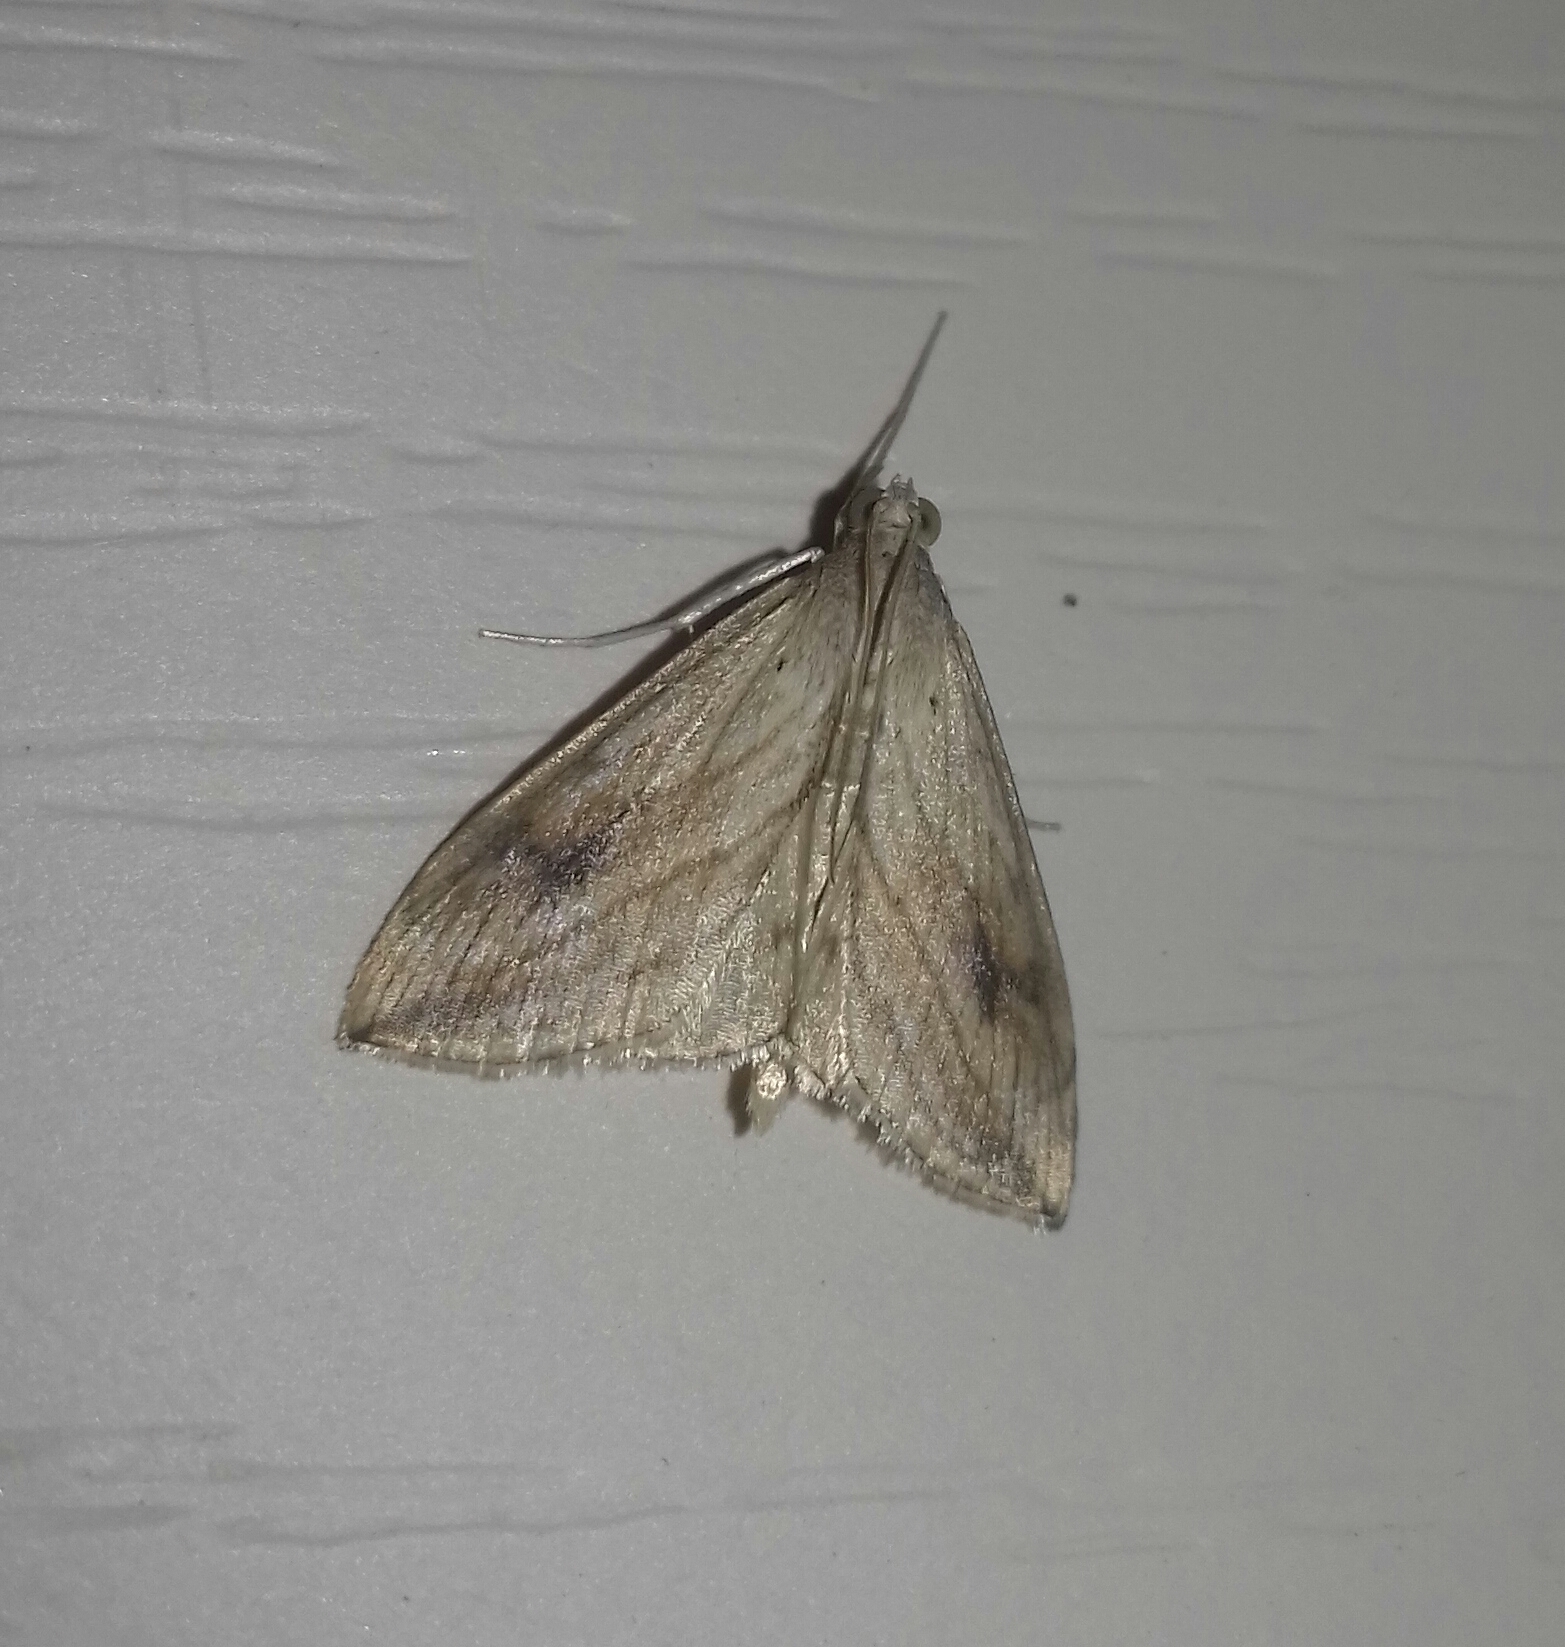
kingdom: Animalia
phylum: Arthropoda
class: Insecta
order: Lepidoptera
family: Crambidae
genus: Evergestis
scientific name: Evergestis forficalis
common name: Garden pebble
